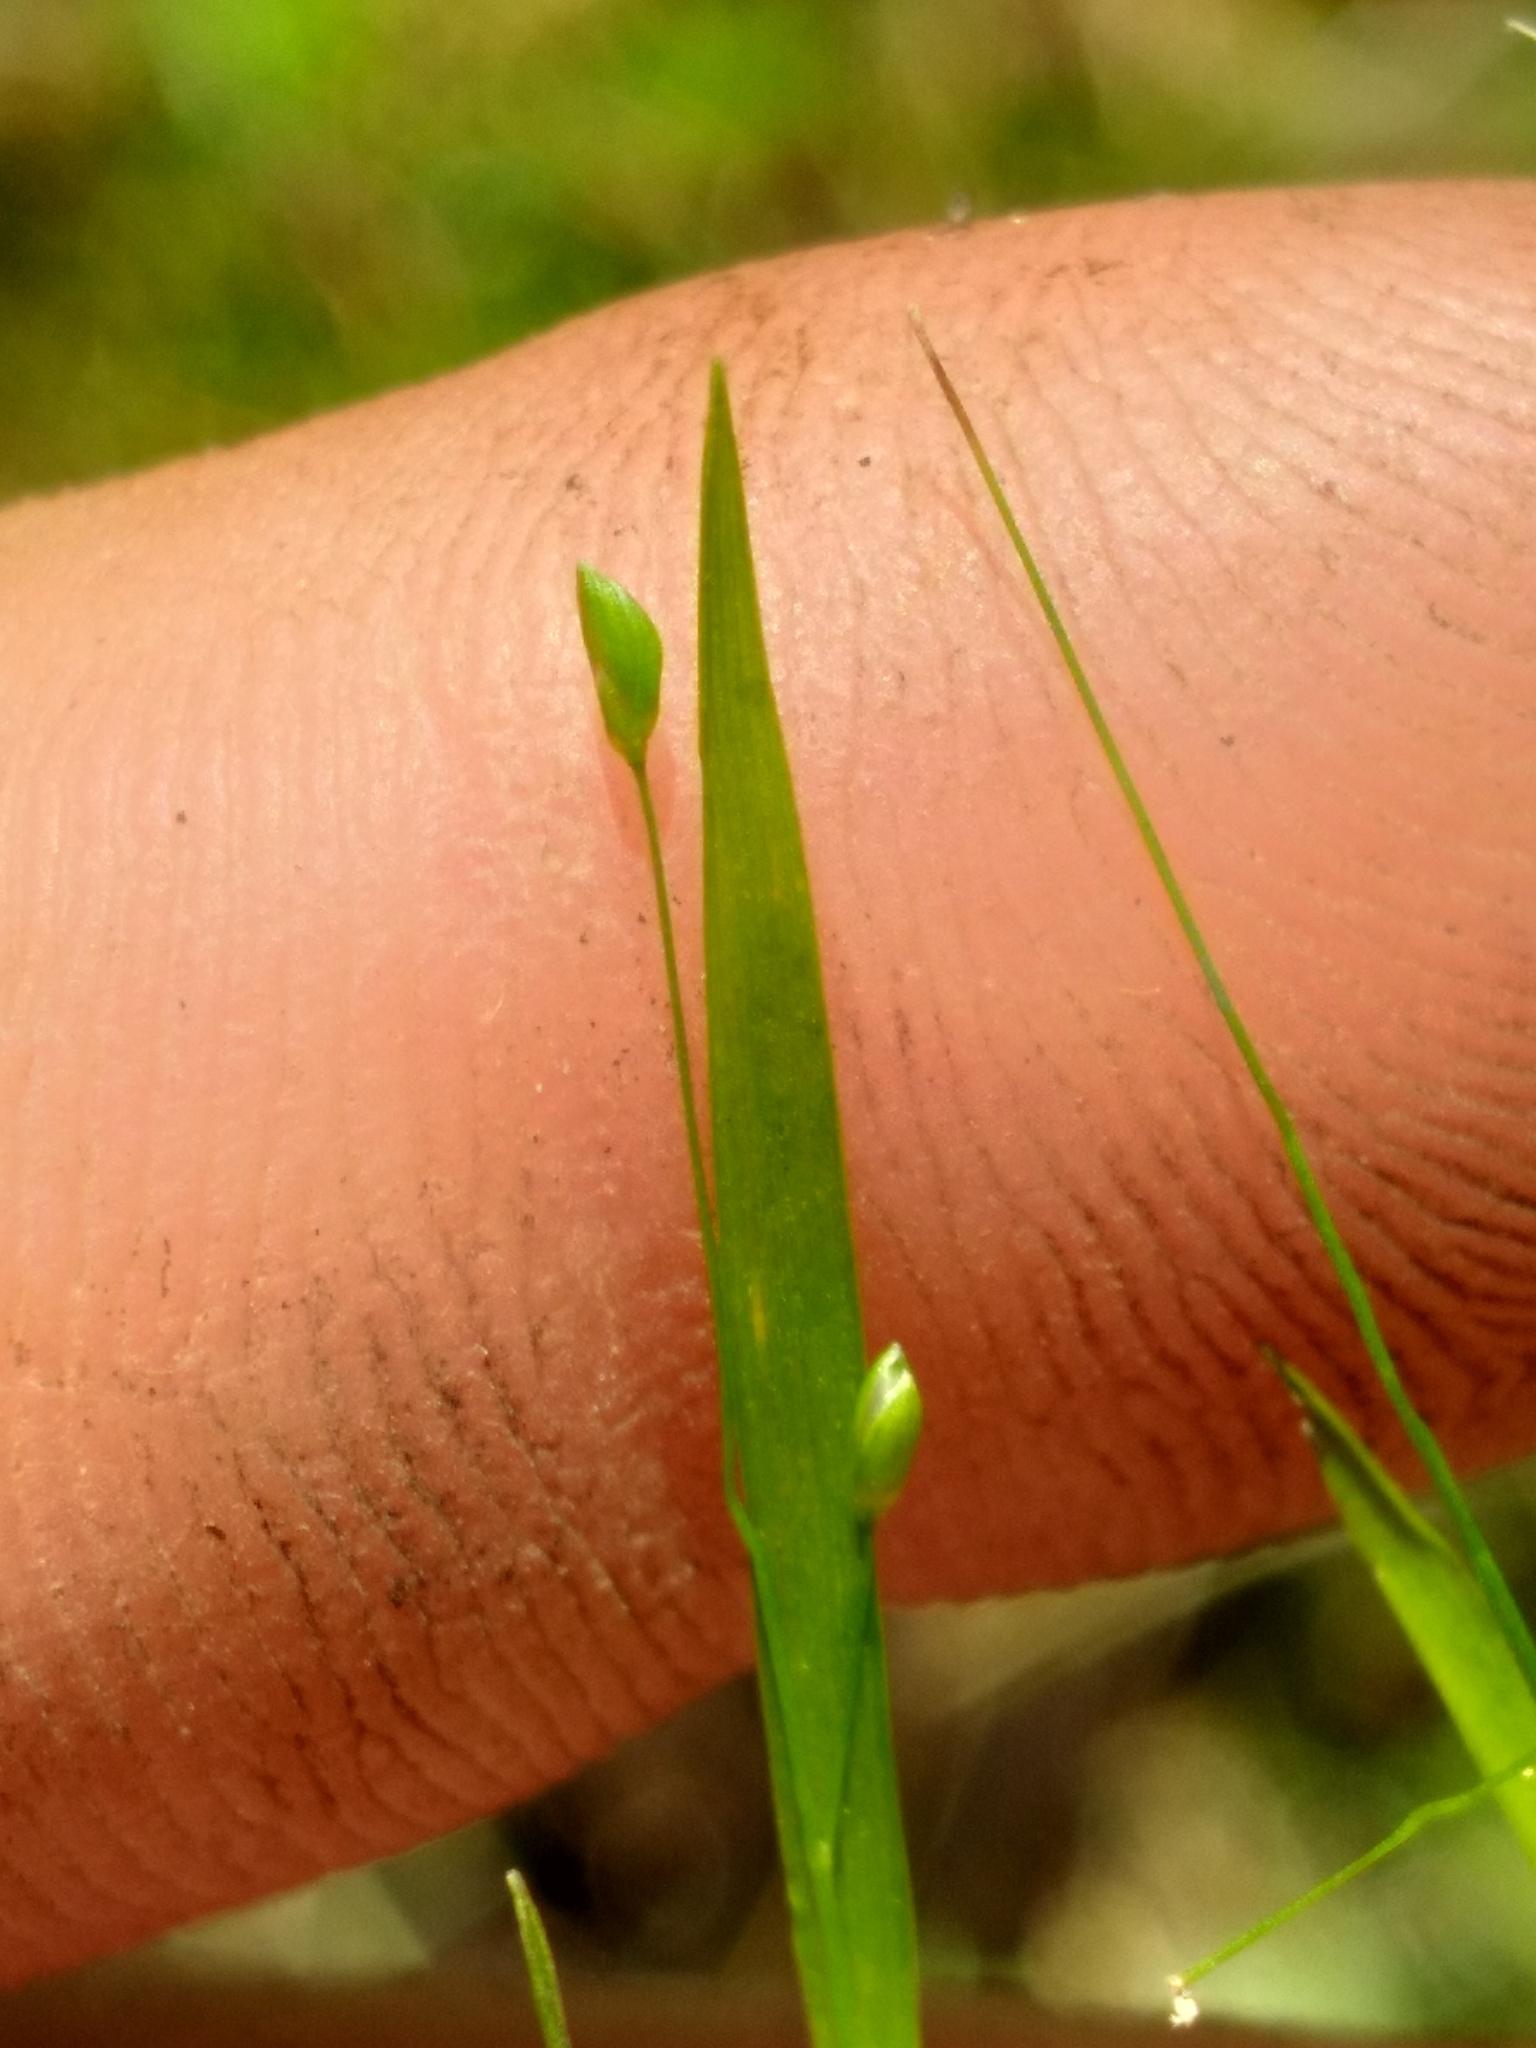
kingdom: Plantae
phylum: Tracheophyta
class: Liliopsida
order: Poales
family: Poaceae
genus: Dichanthelium
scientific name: Dichanthelium lucidum
